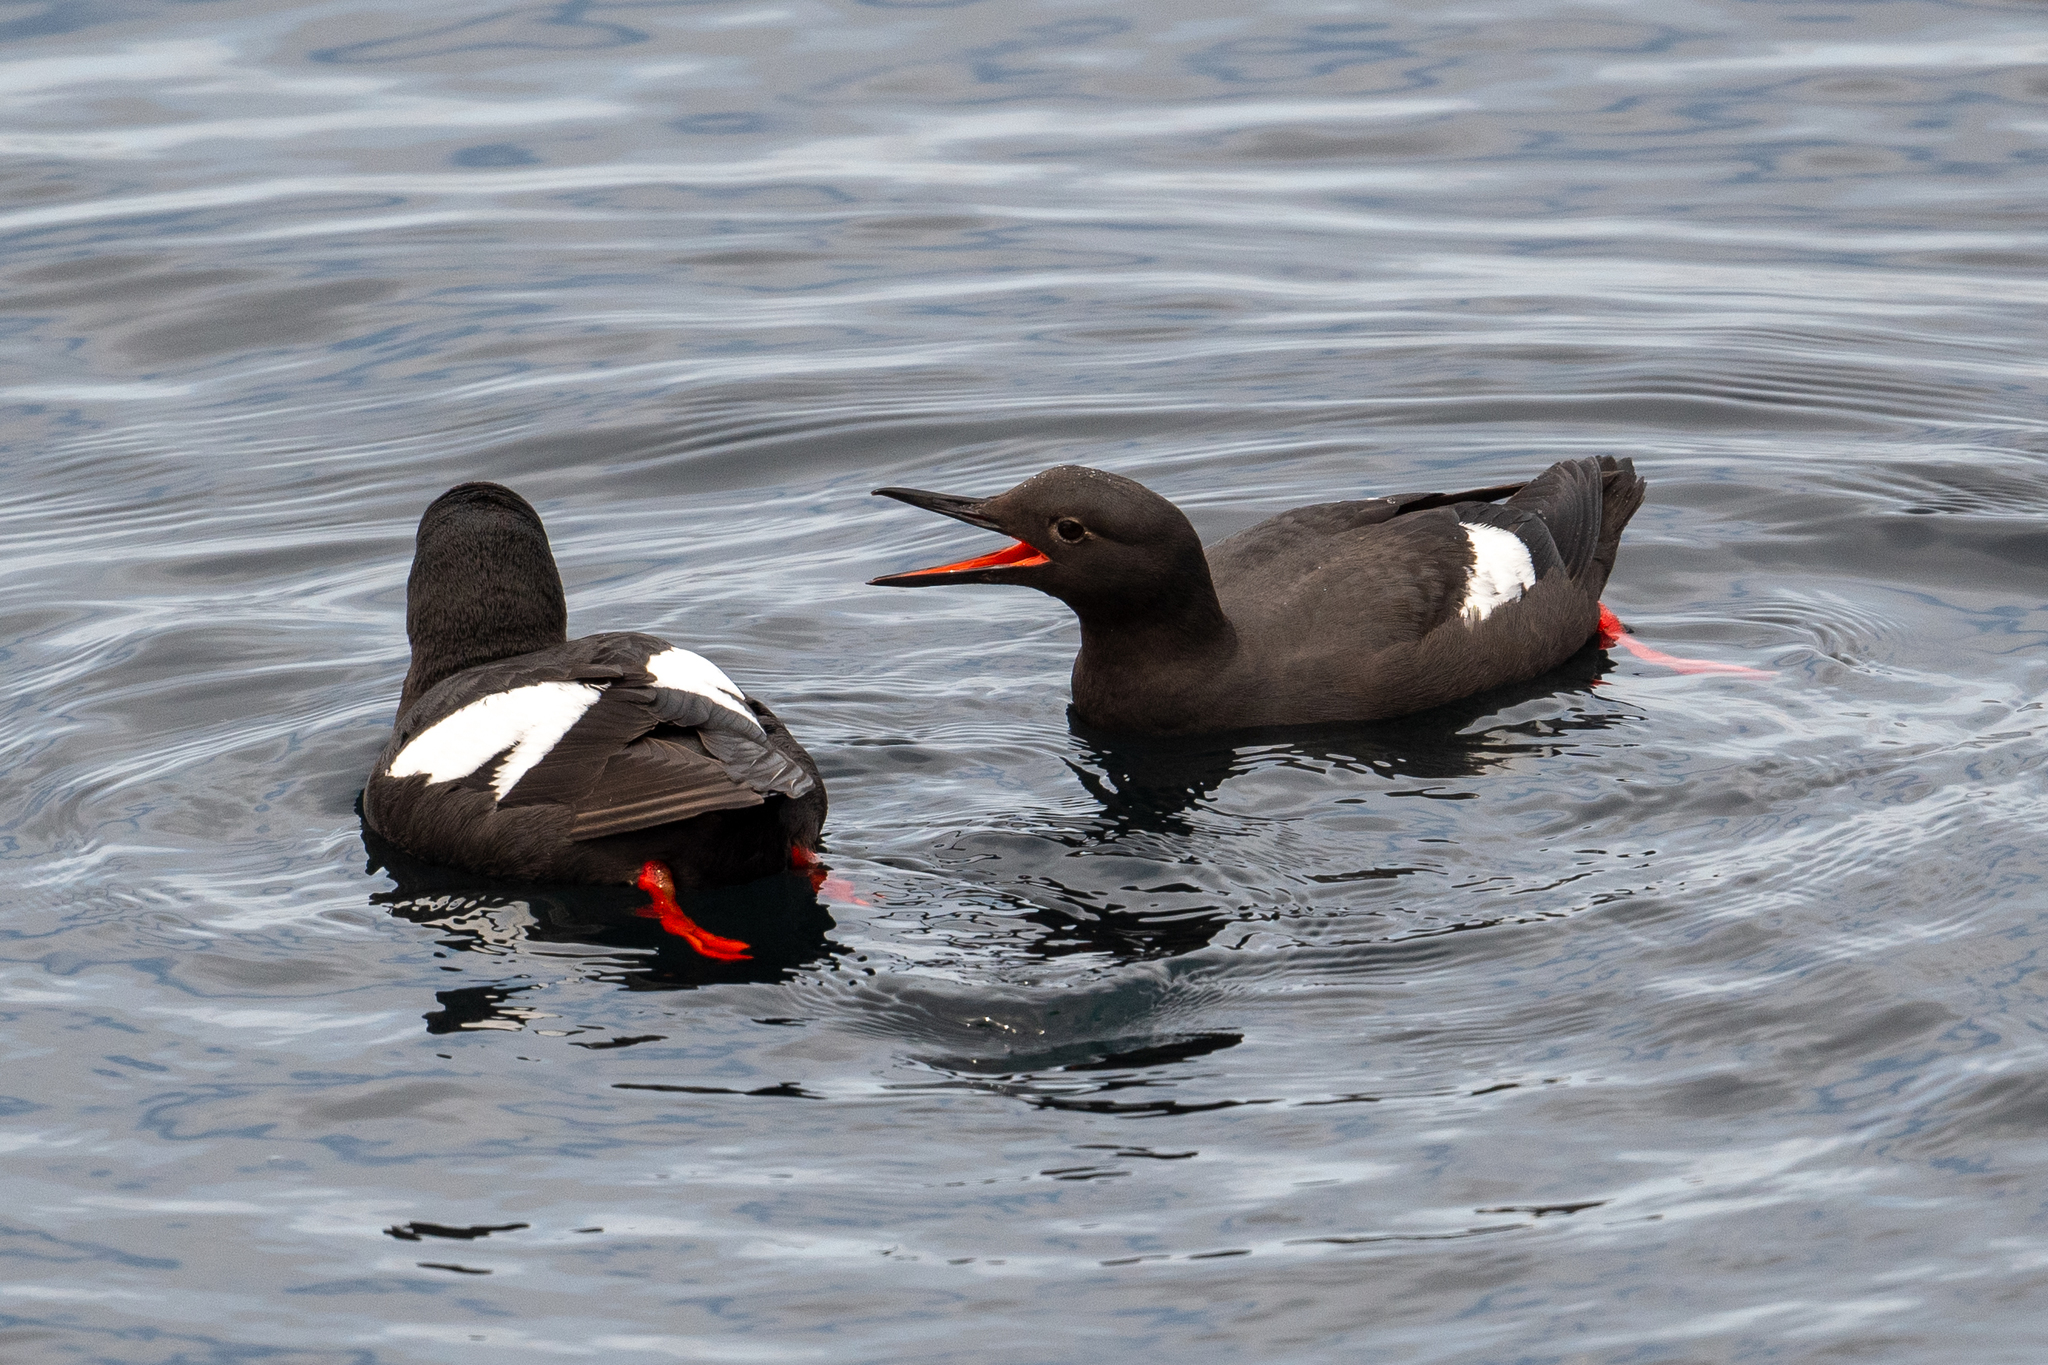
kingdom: Animalia
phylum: Chordata
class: Aves
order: Charadriiformes
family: Alcidae
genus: Cepphus
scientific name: Cepphus columba
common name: Pigeon guillemot
